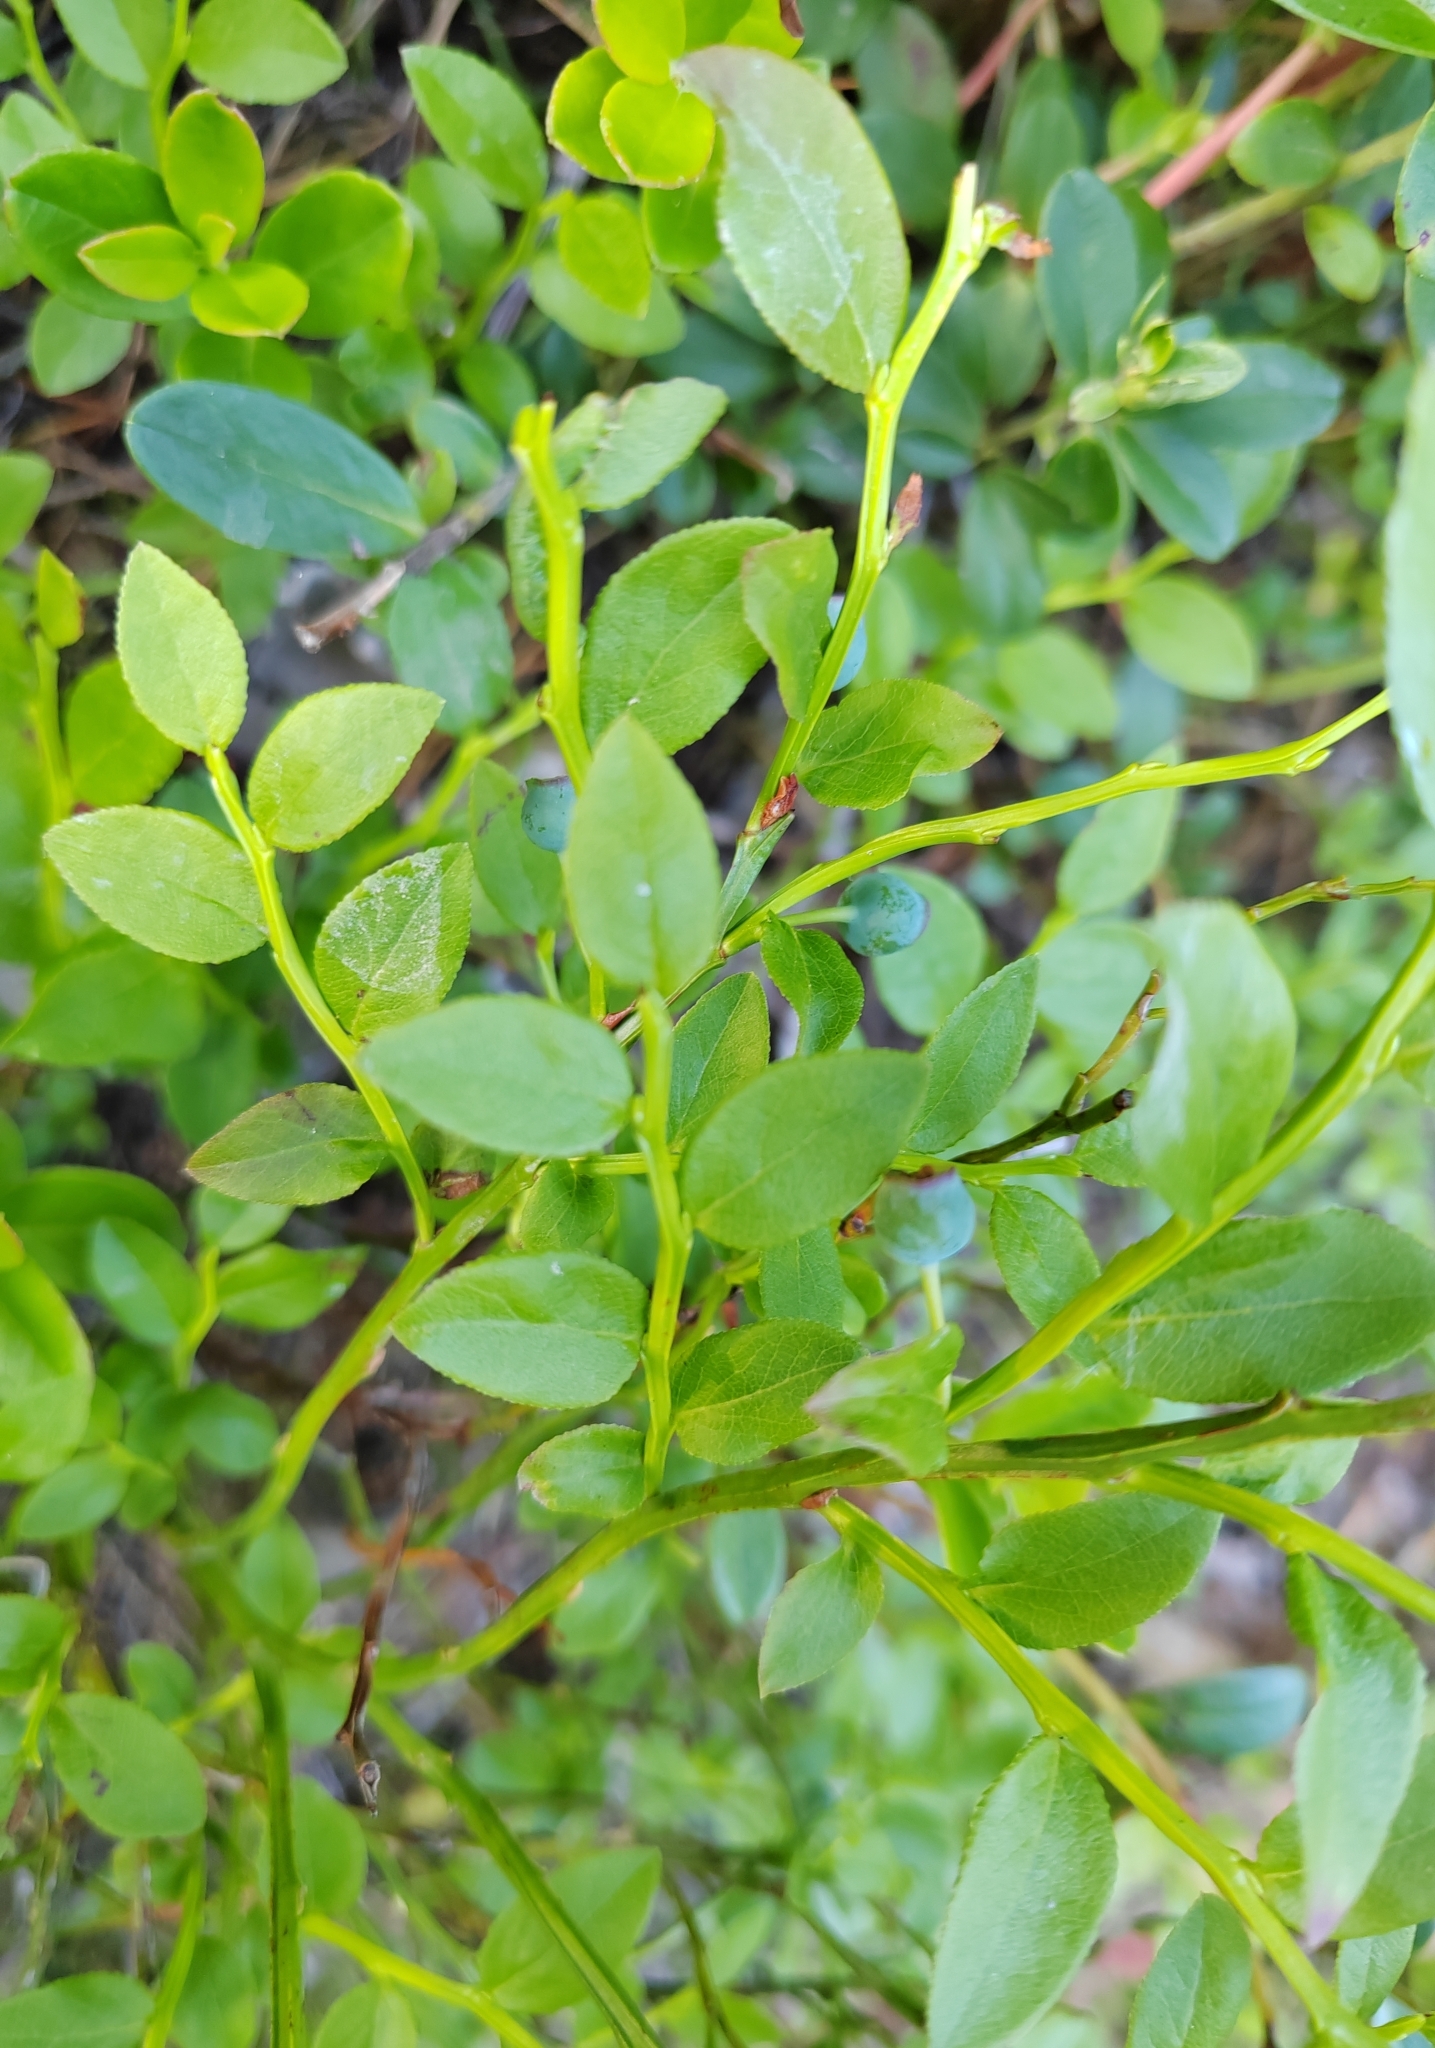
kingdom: Plantae
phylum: Tracheophyta
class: Magnoliopsida
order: Ericales
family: Ericaceae
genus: Vaccinium
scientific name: Vaccinium myrtillus
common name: Bilberry
